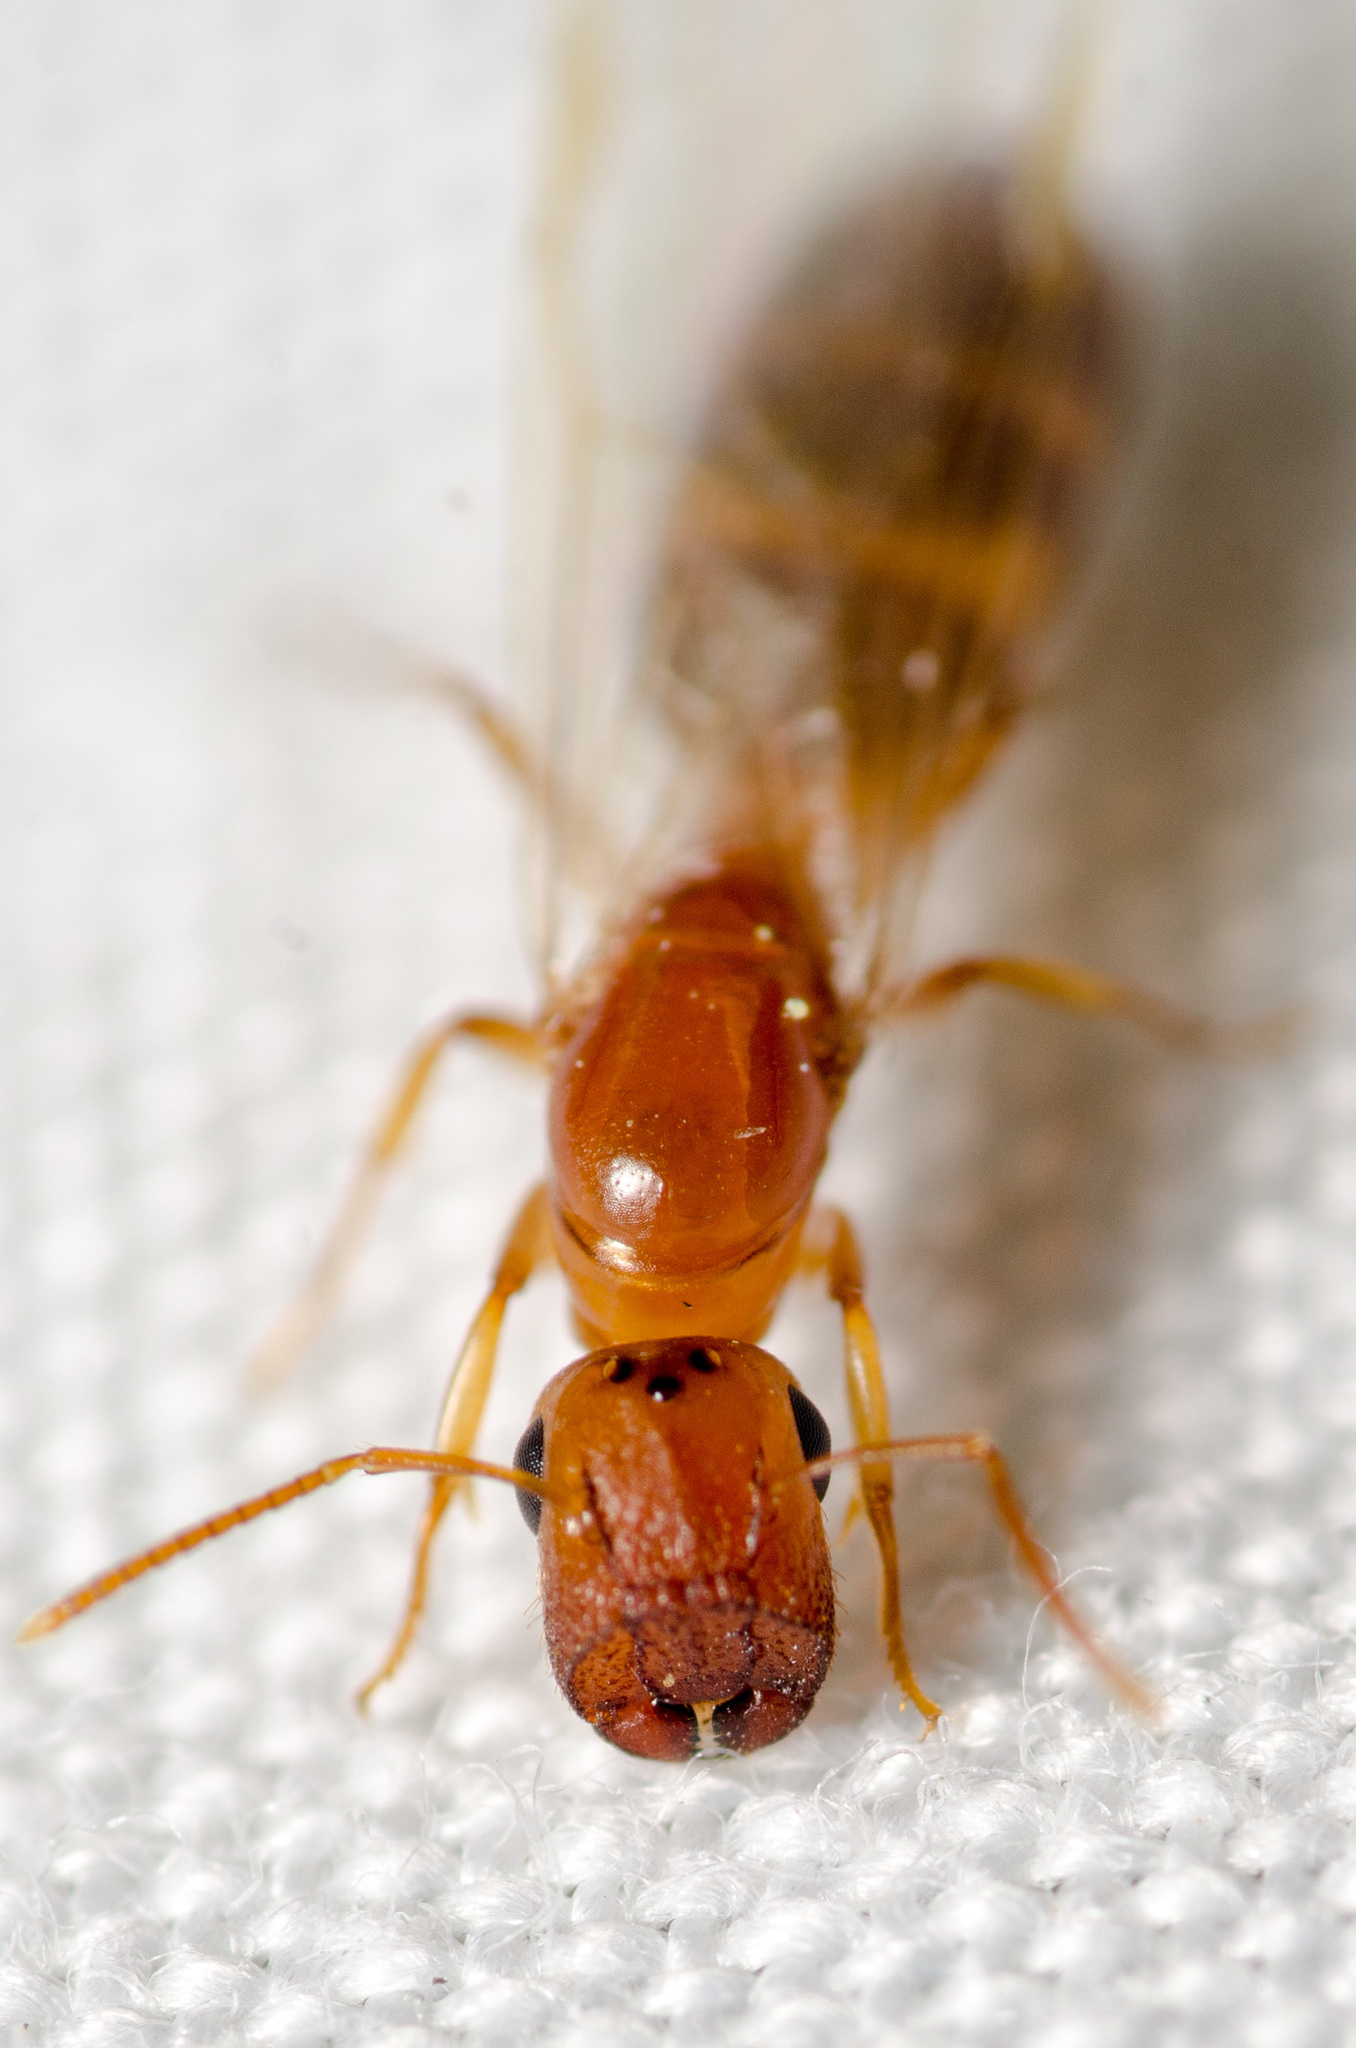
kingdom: Animalia
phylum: Arthropoda
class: Insecta
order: Hymenoptera
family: Formicidae
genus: Colobopsis
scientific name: Colobopsis
